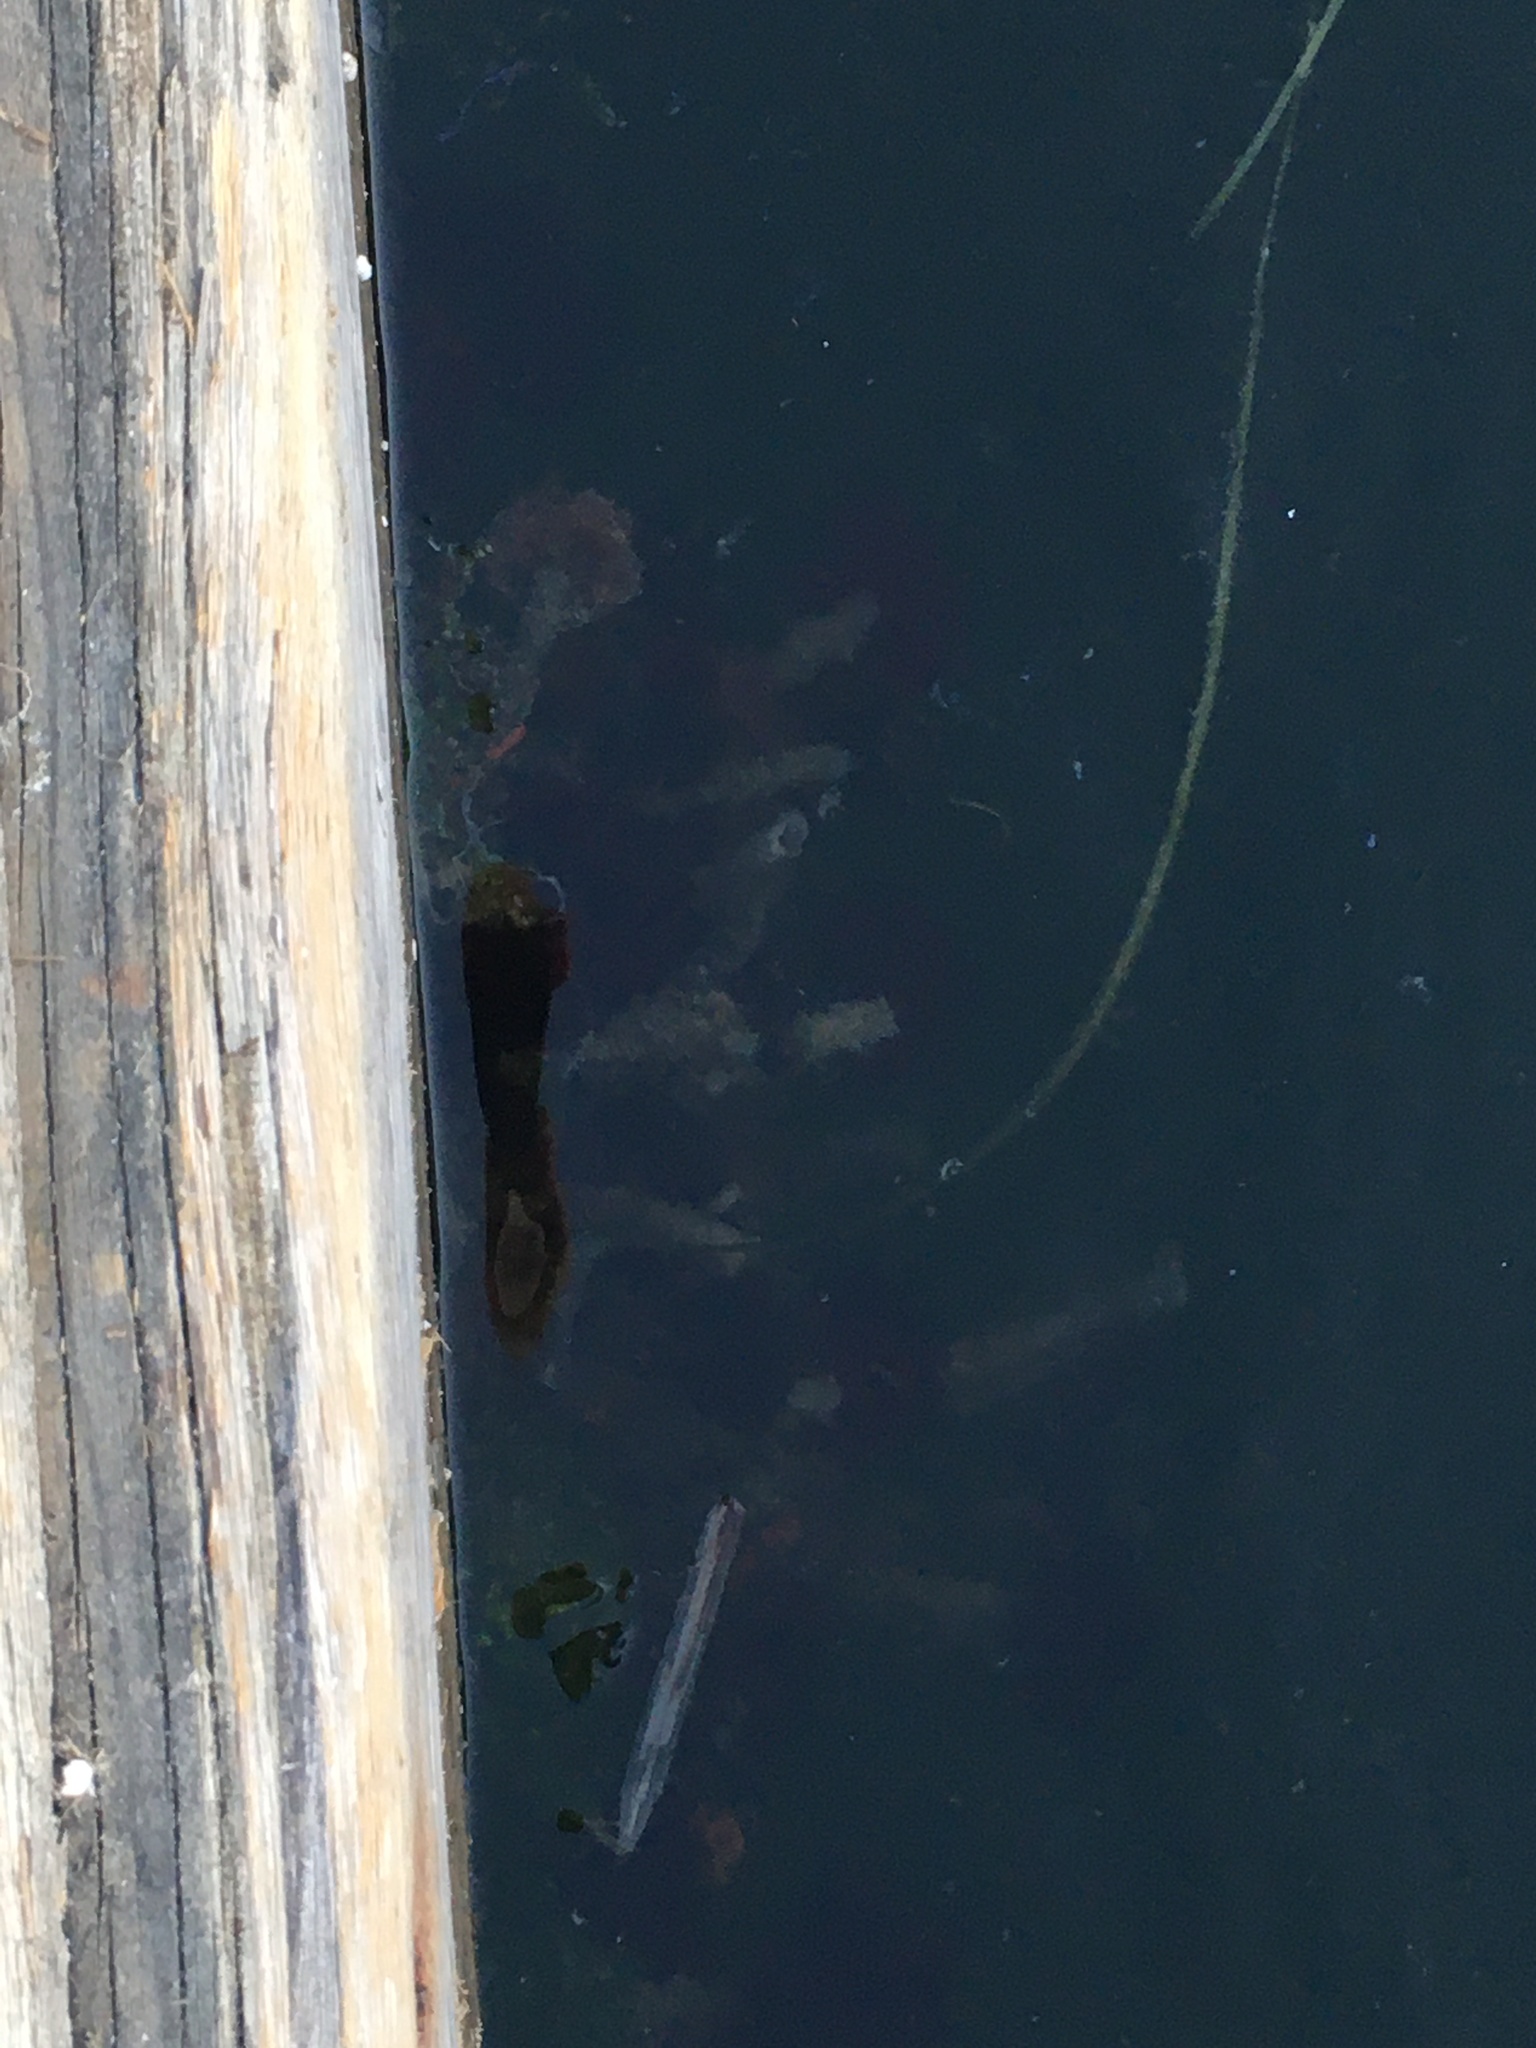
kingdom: Animalia
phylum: Annelida
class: Polychaeta
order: Sabellida
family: Sabellidae
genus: Eudistylia
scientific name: Eudistylia vancouveri
